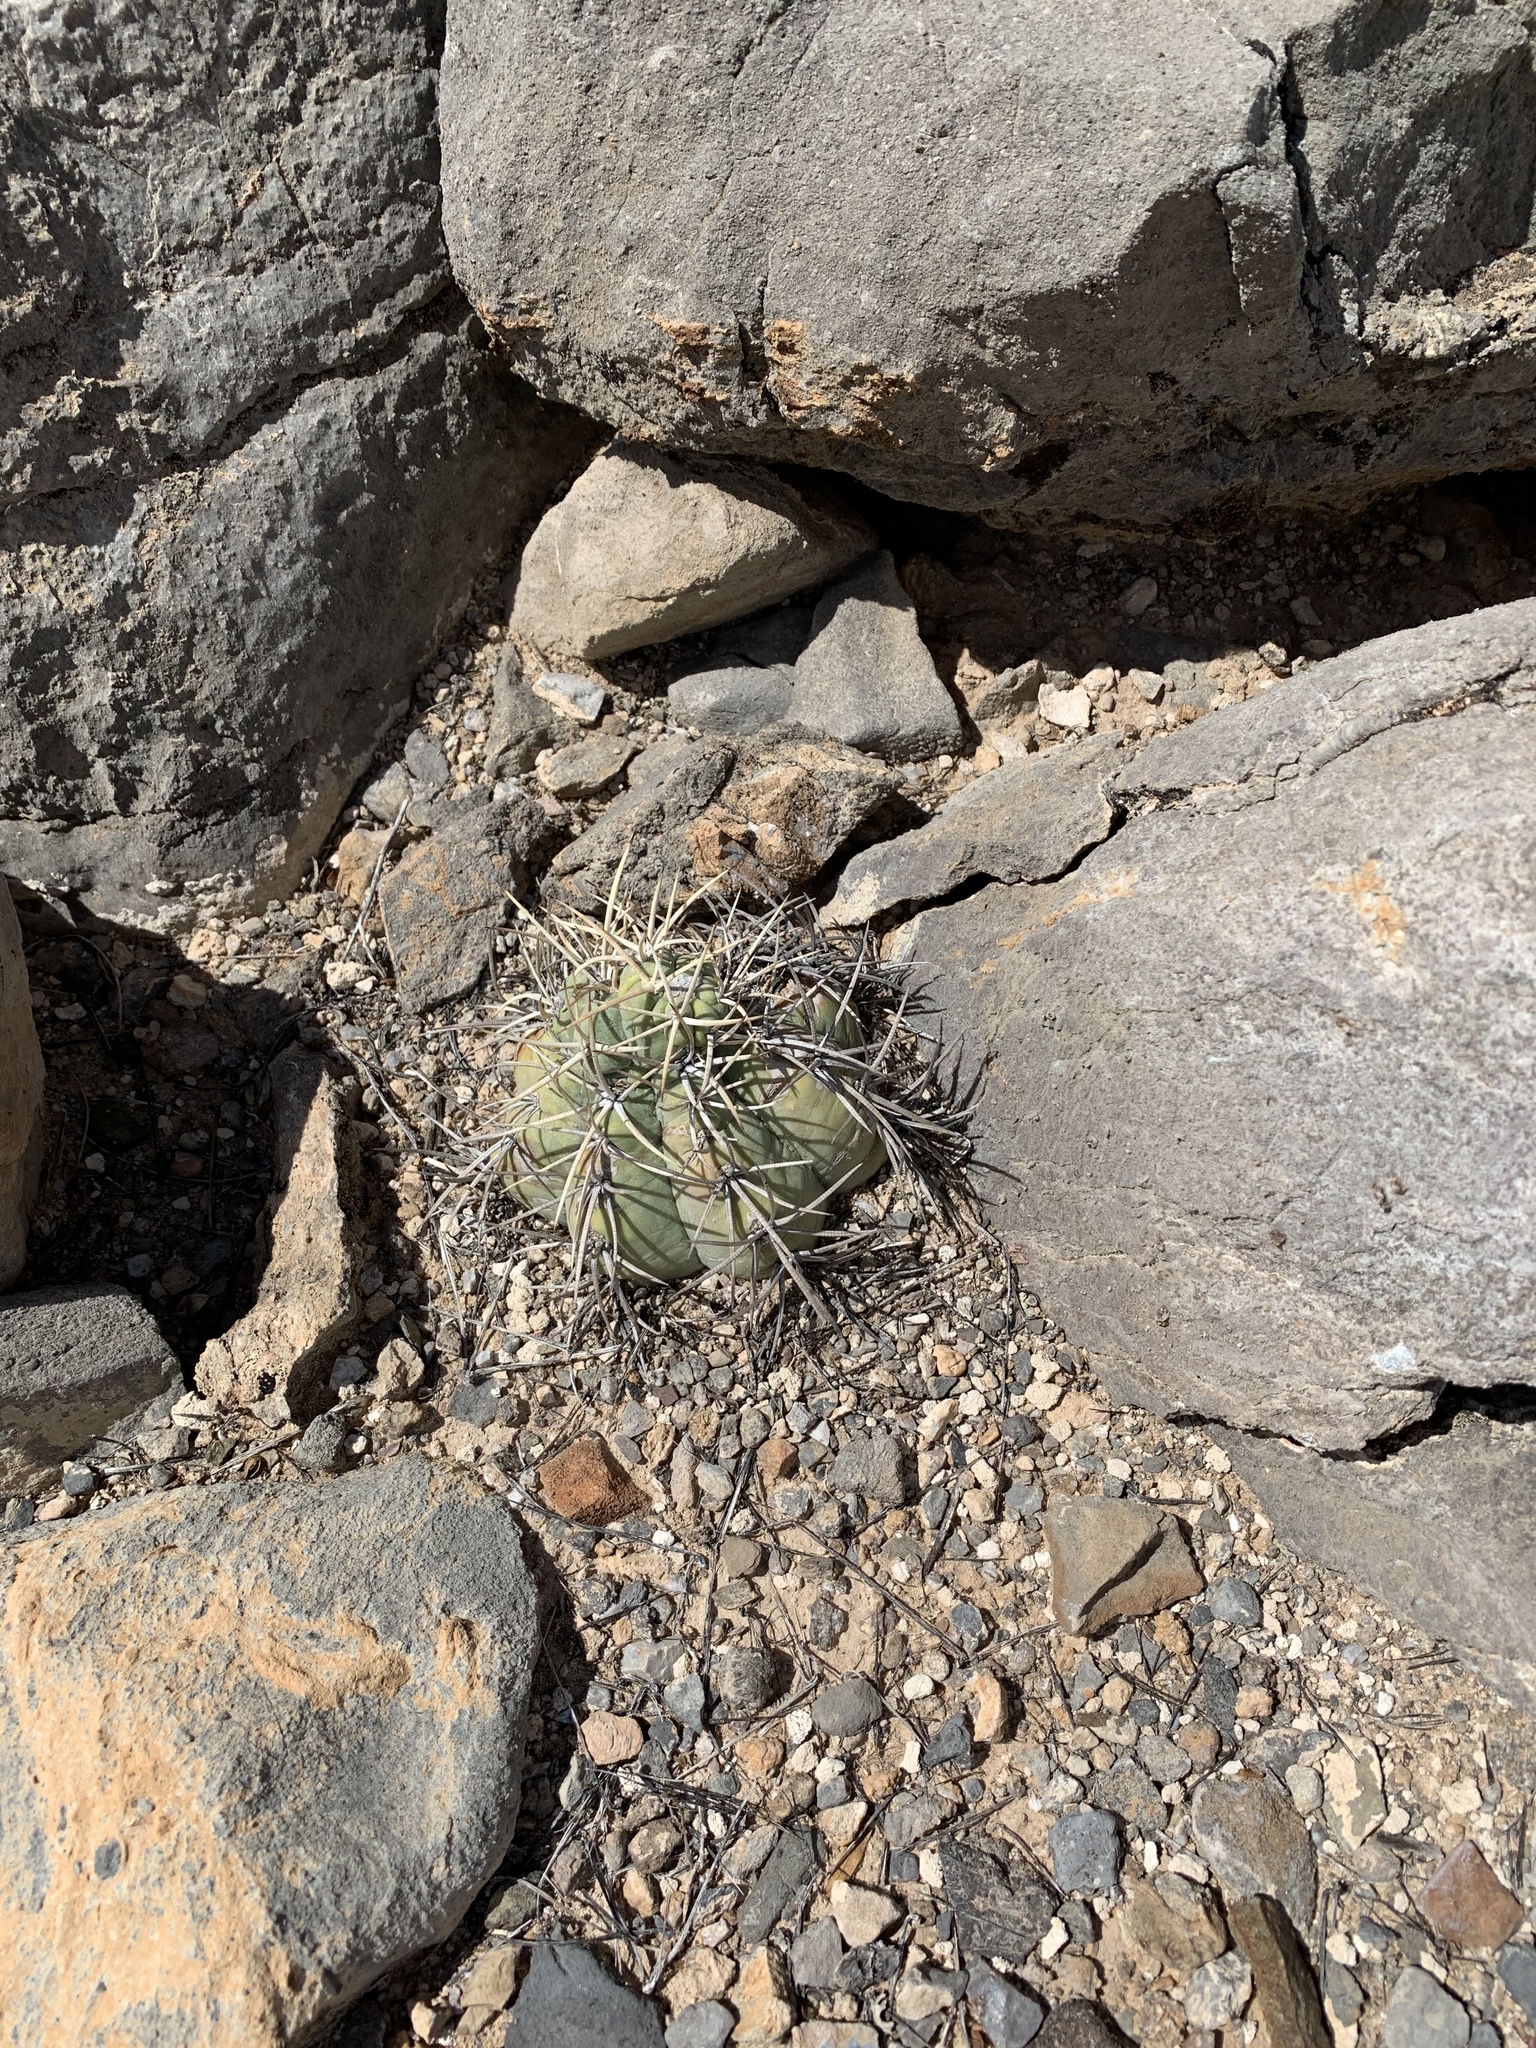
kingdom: Plantae
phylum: Tracheophyta
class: Magnoliopsida
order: Caryophyllales
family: Cactaceae
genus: Echinocactus
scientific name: Echinocactus horizonthalonius
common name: Devilshead
